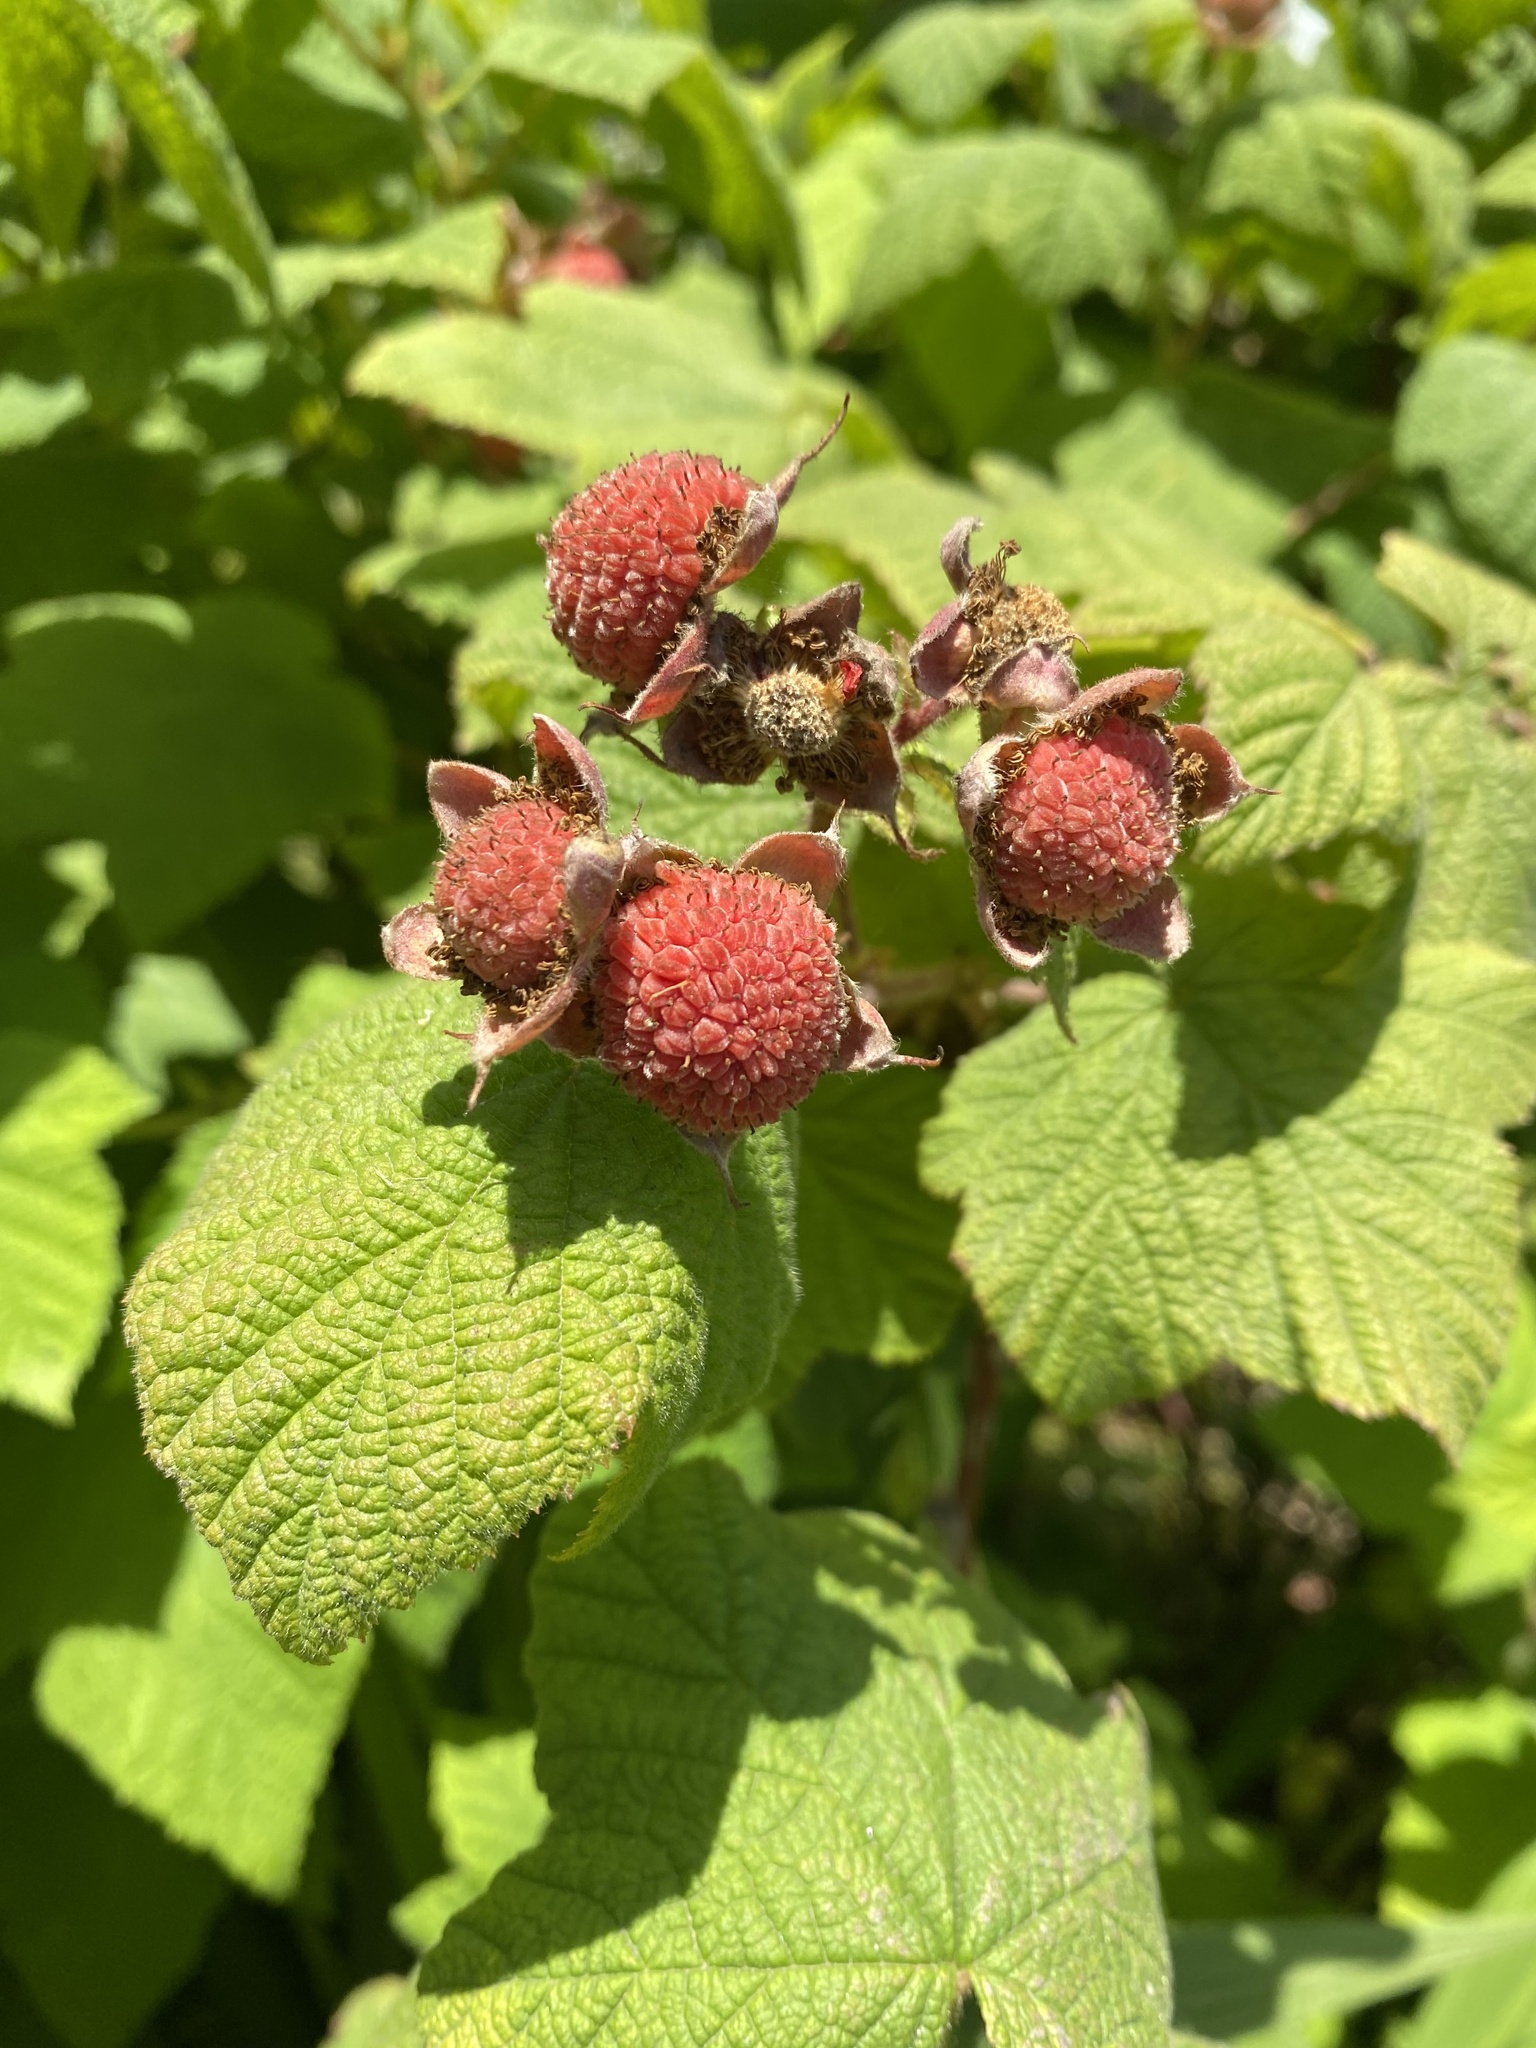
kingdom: Plantae
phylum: Tracheophyta
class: Magnoliopsida
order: Rosales
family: Rosaceae
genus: Rubus
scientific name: Rubus parviflorus
